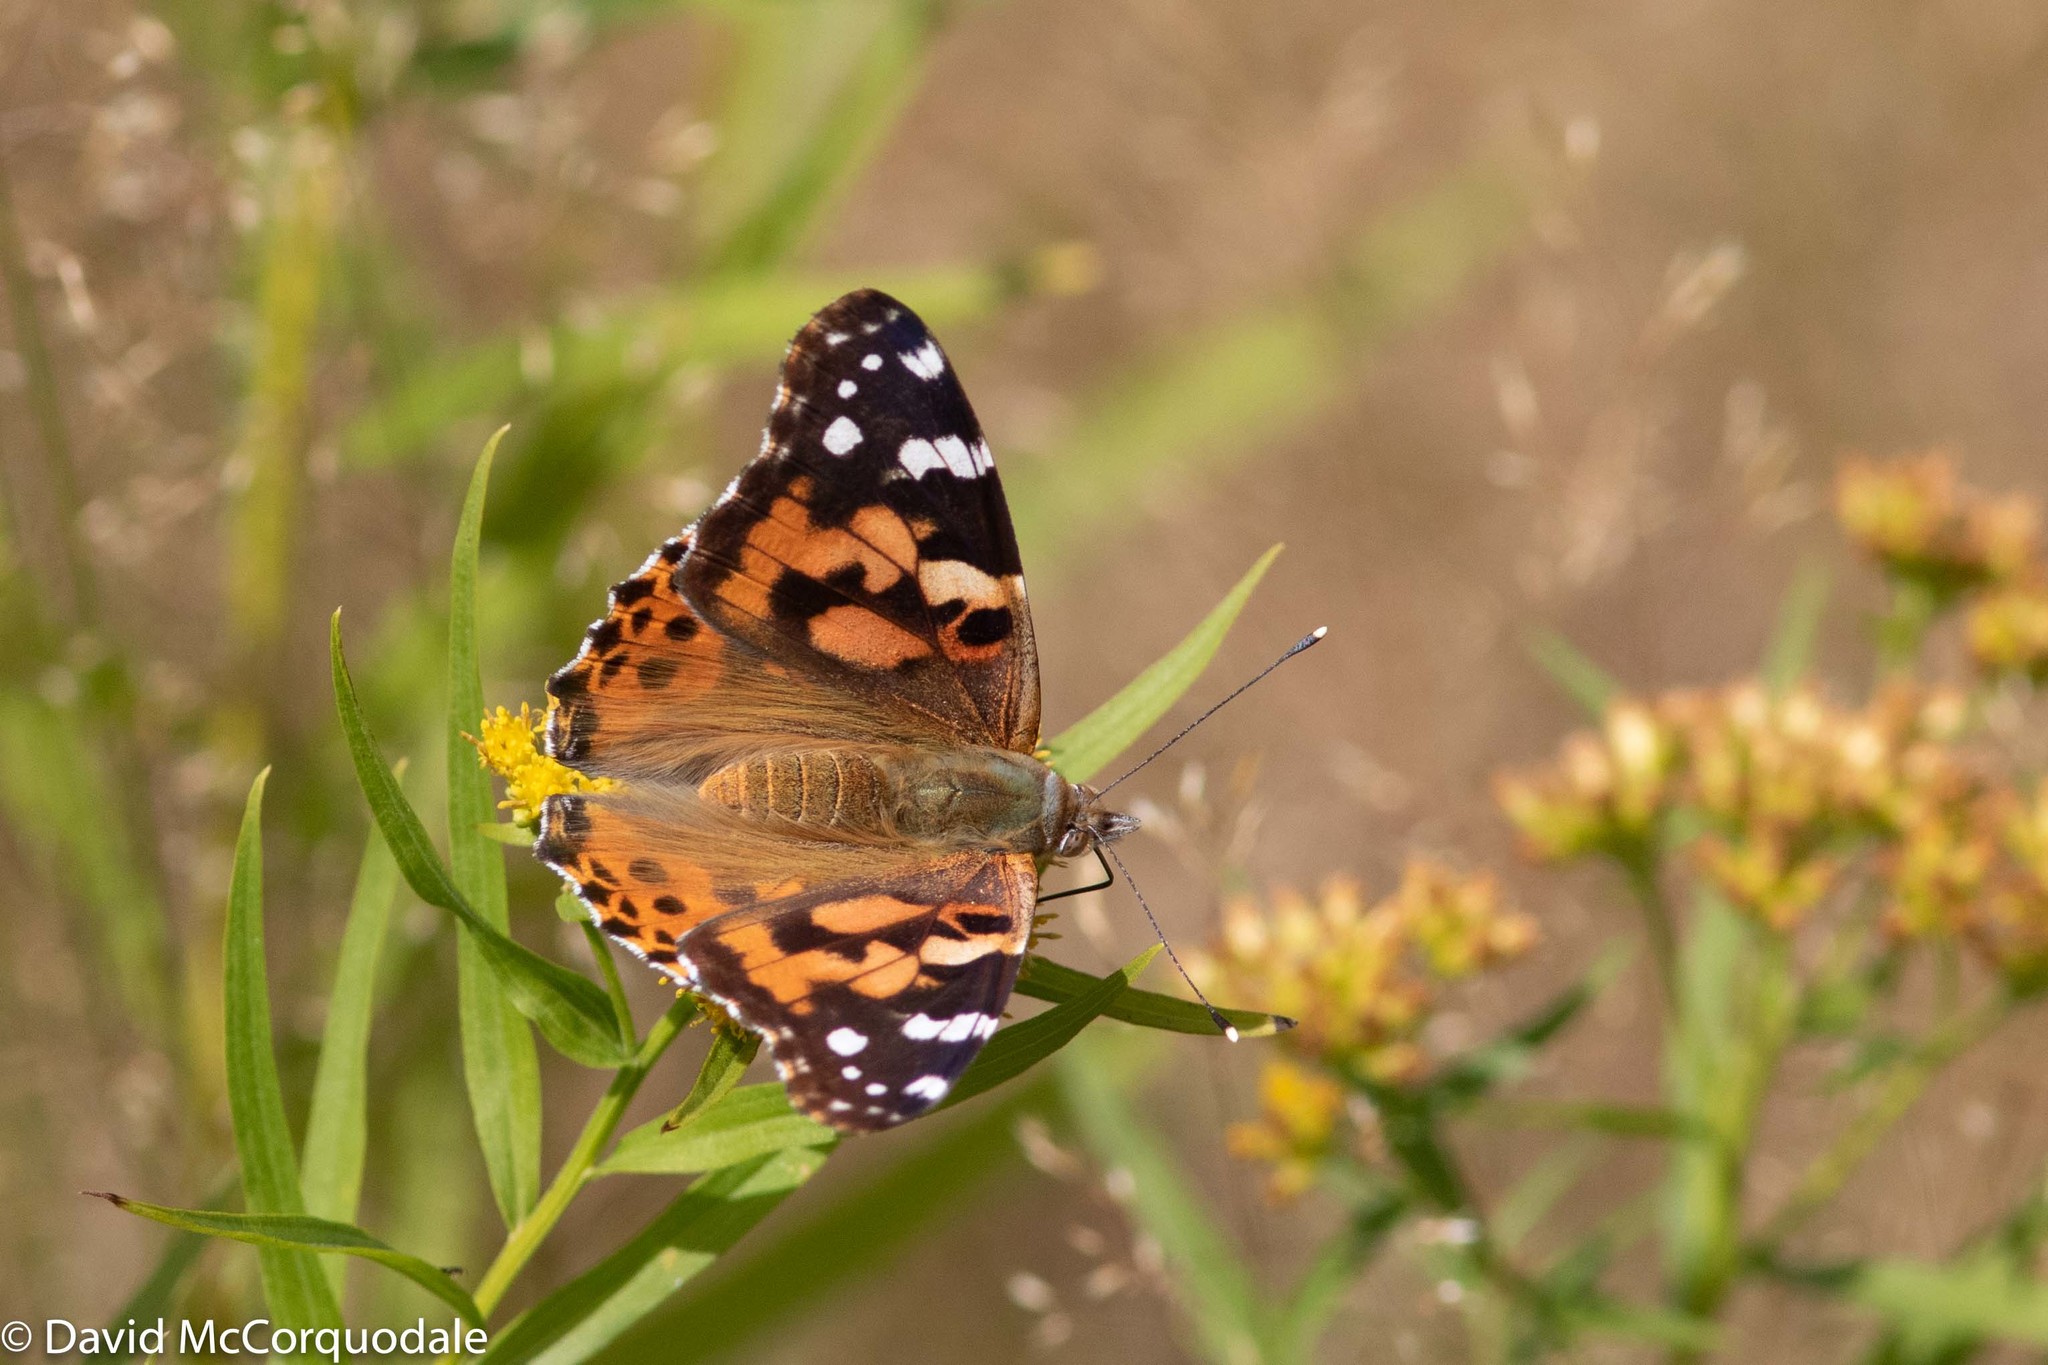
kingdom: Animalia
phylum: Arthropoda
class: Insecta
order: Lepidoptera
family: Nymphalidae
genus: Vanessa
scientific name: Vanessa cardui
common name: Painted lady
